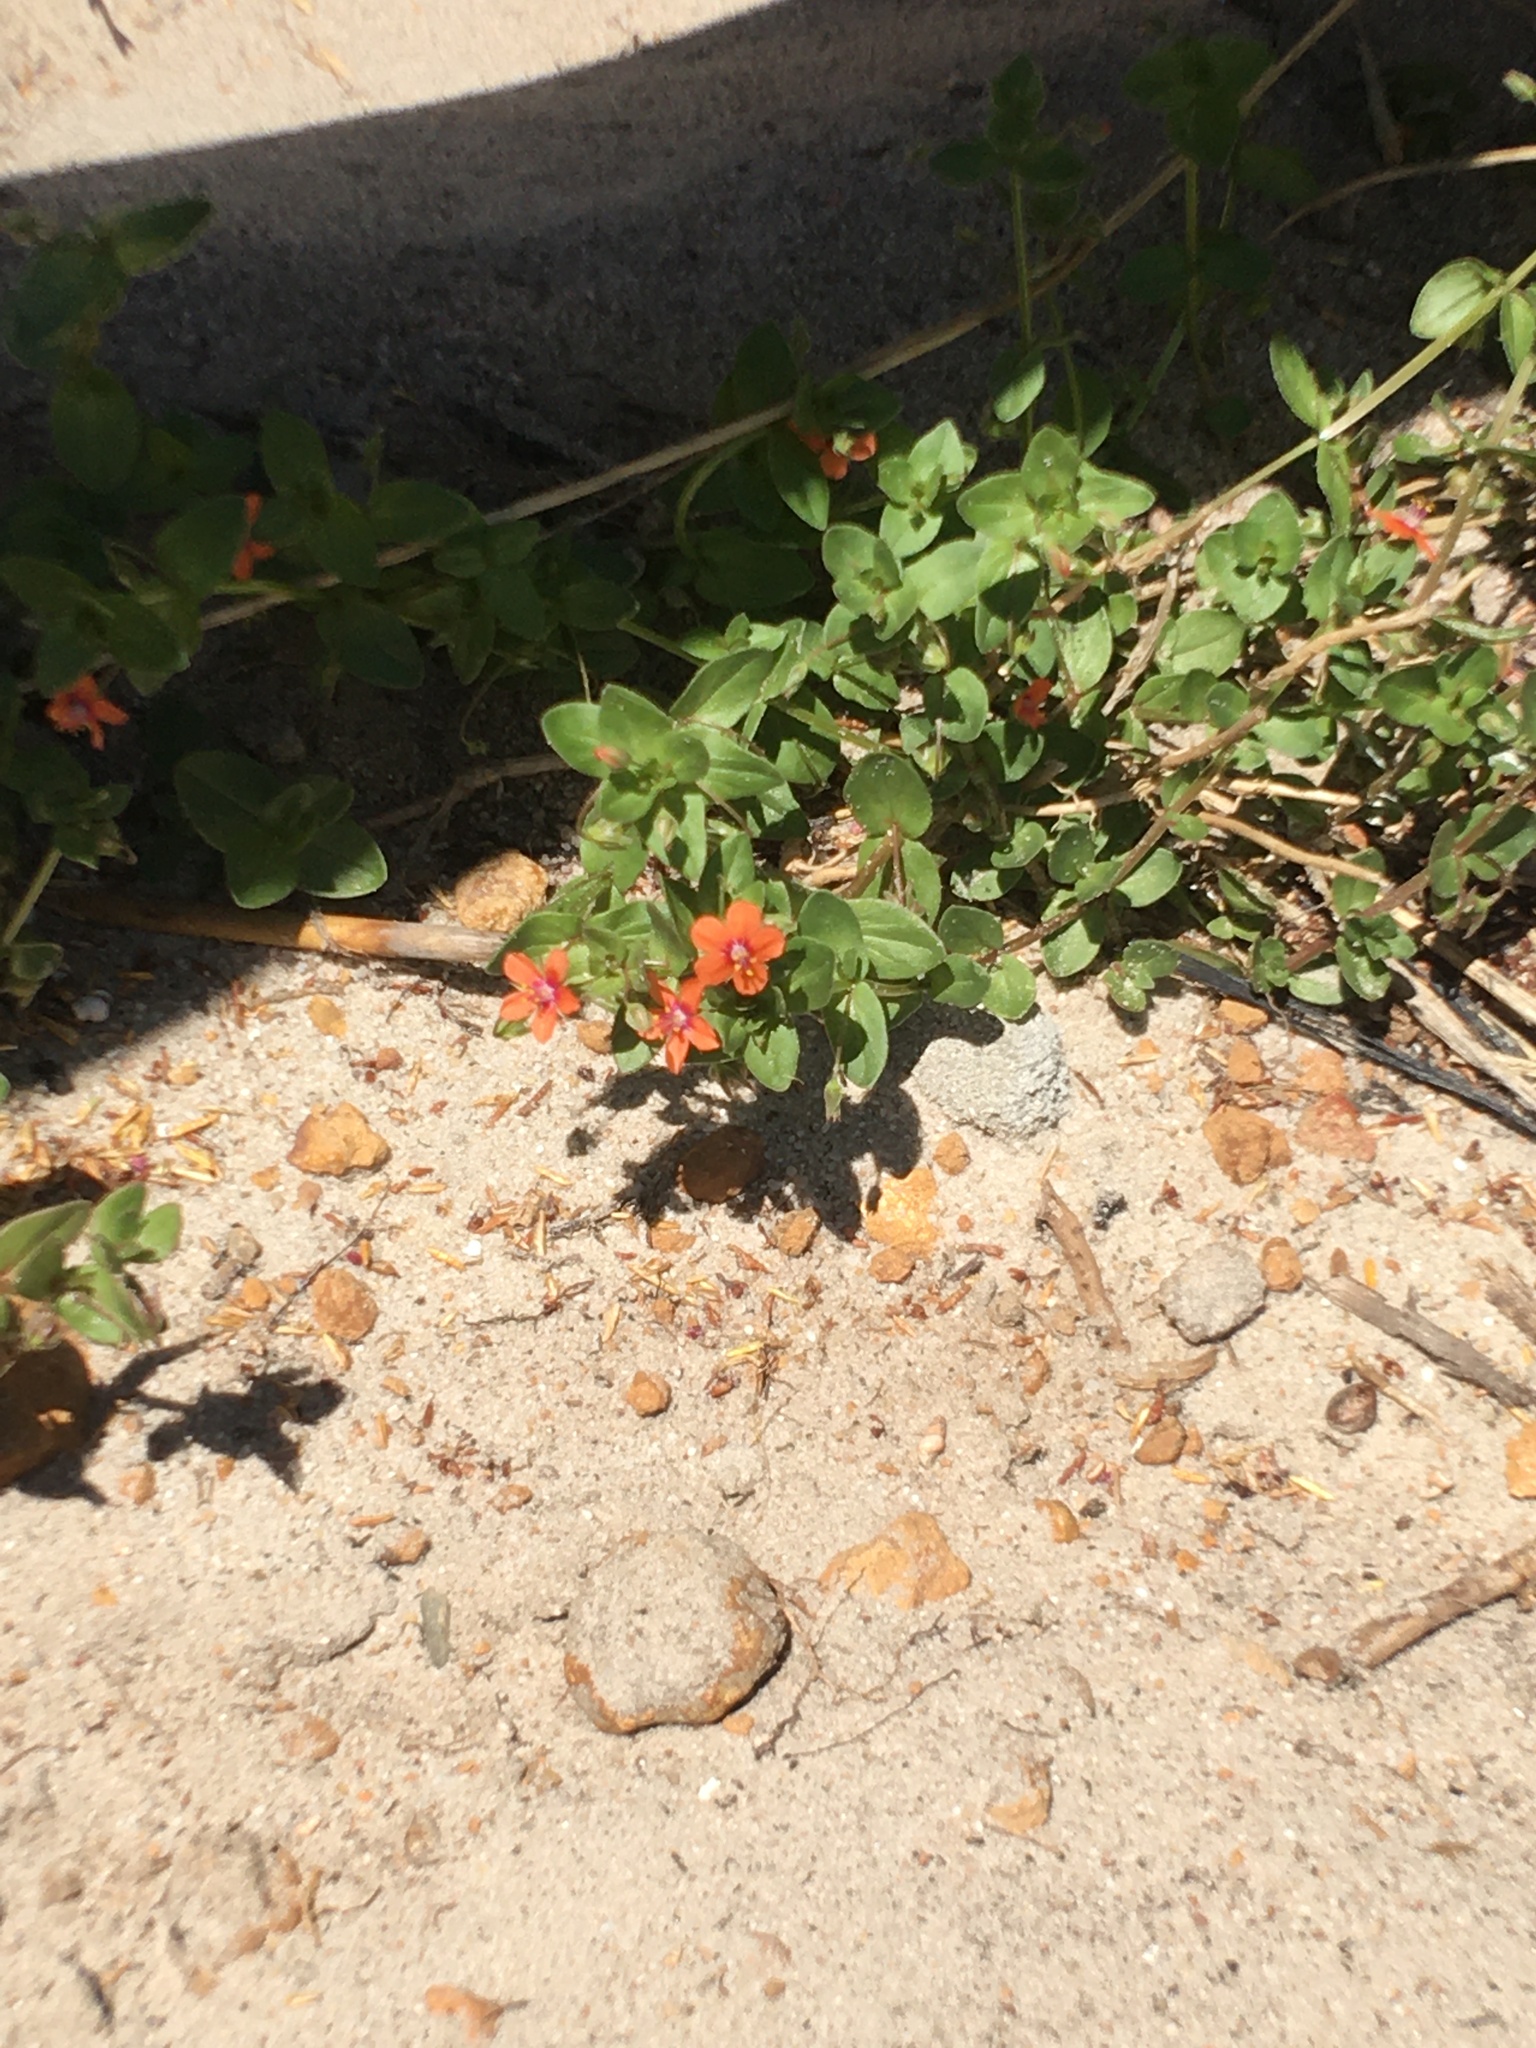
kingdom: Plantae
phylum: Tracheophyta
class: Magnoliopsida
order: Ericales
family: Primulaceae
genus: Lysimachia
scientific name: Lysimachia arvensis
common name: Scarlet pimpernel
